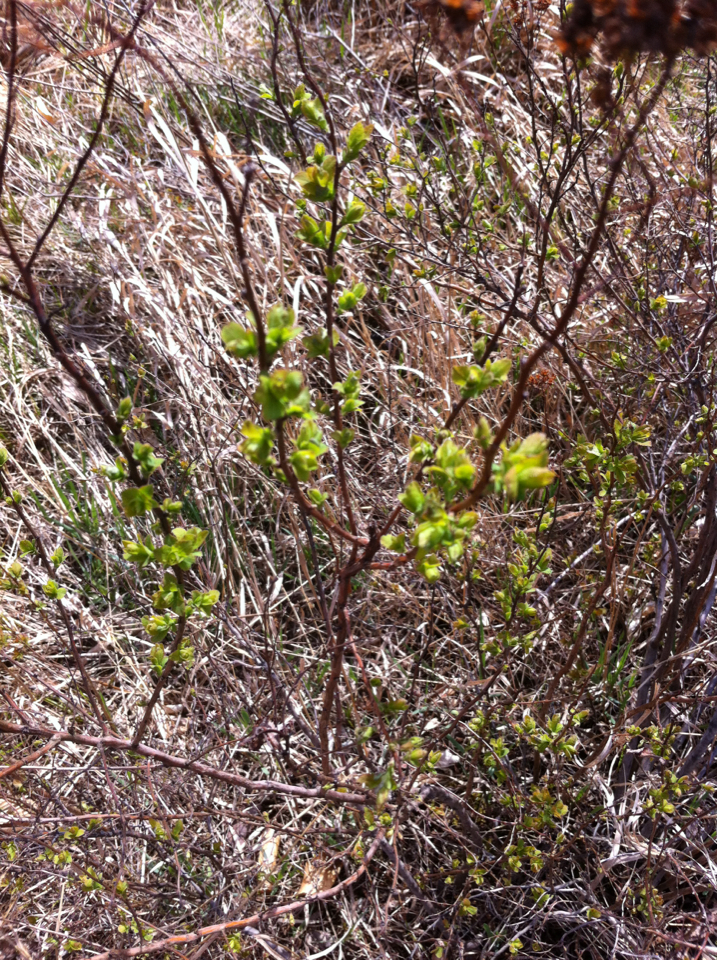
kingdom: Plantae
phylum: Tracheophyta
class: Magnoliopsida
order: Rosales
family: Rosaceae
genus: Spiraea
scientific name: Spiraea alba
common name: Pale bridewort
